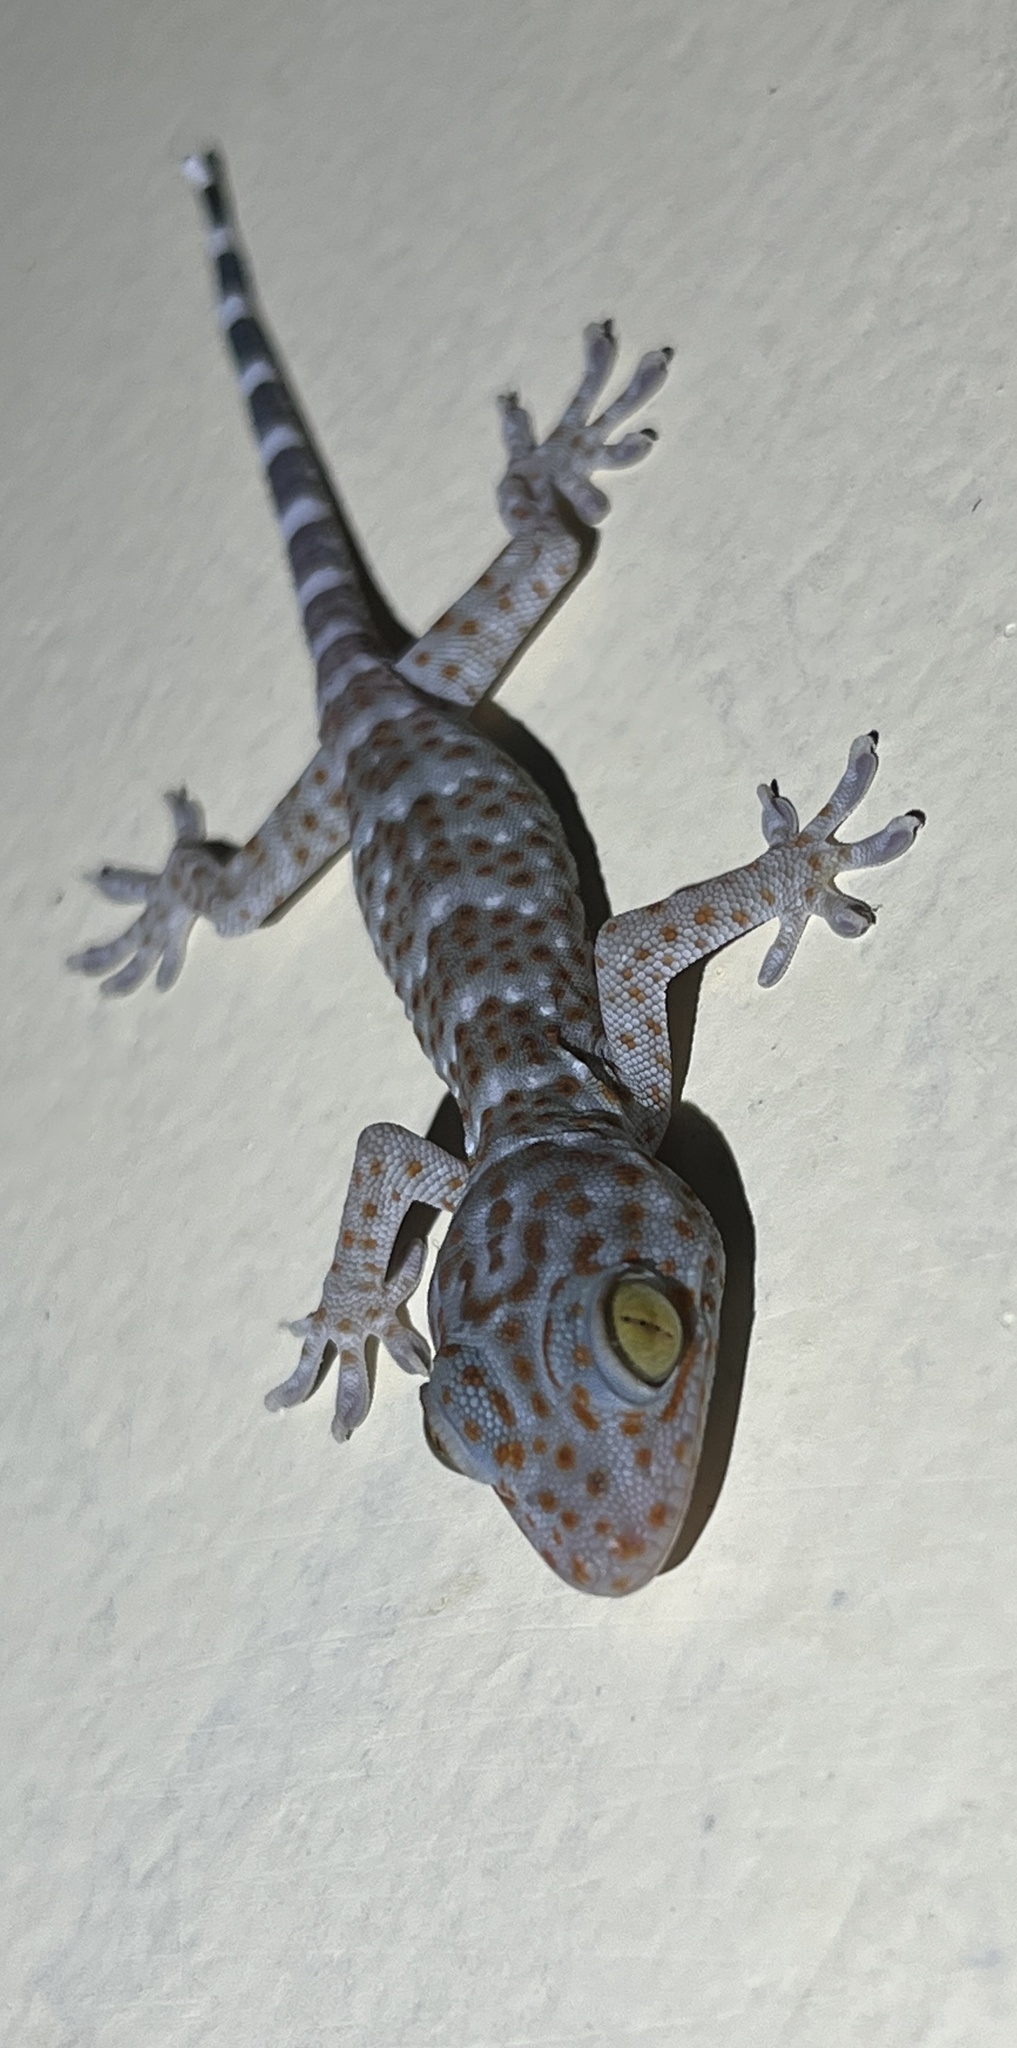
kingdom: Animalia
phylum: Chordata
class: Squamata
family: Gekkonidae
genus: Gekko
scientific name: Gekko gecko
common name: Tokay gecko
